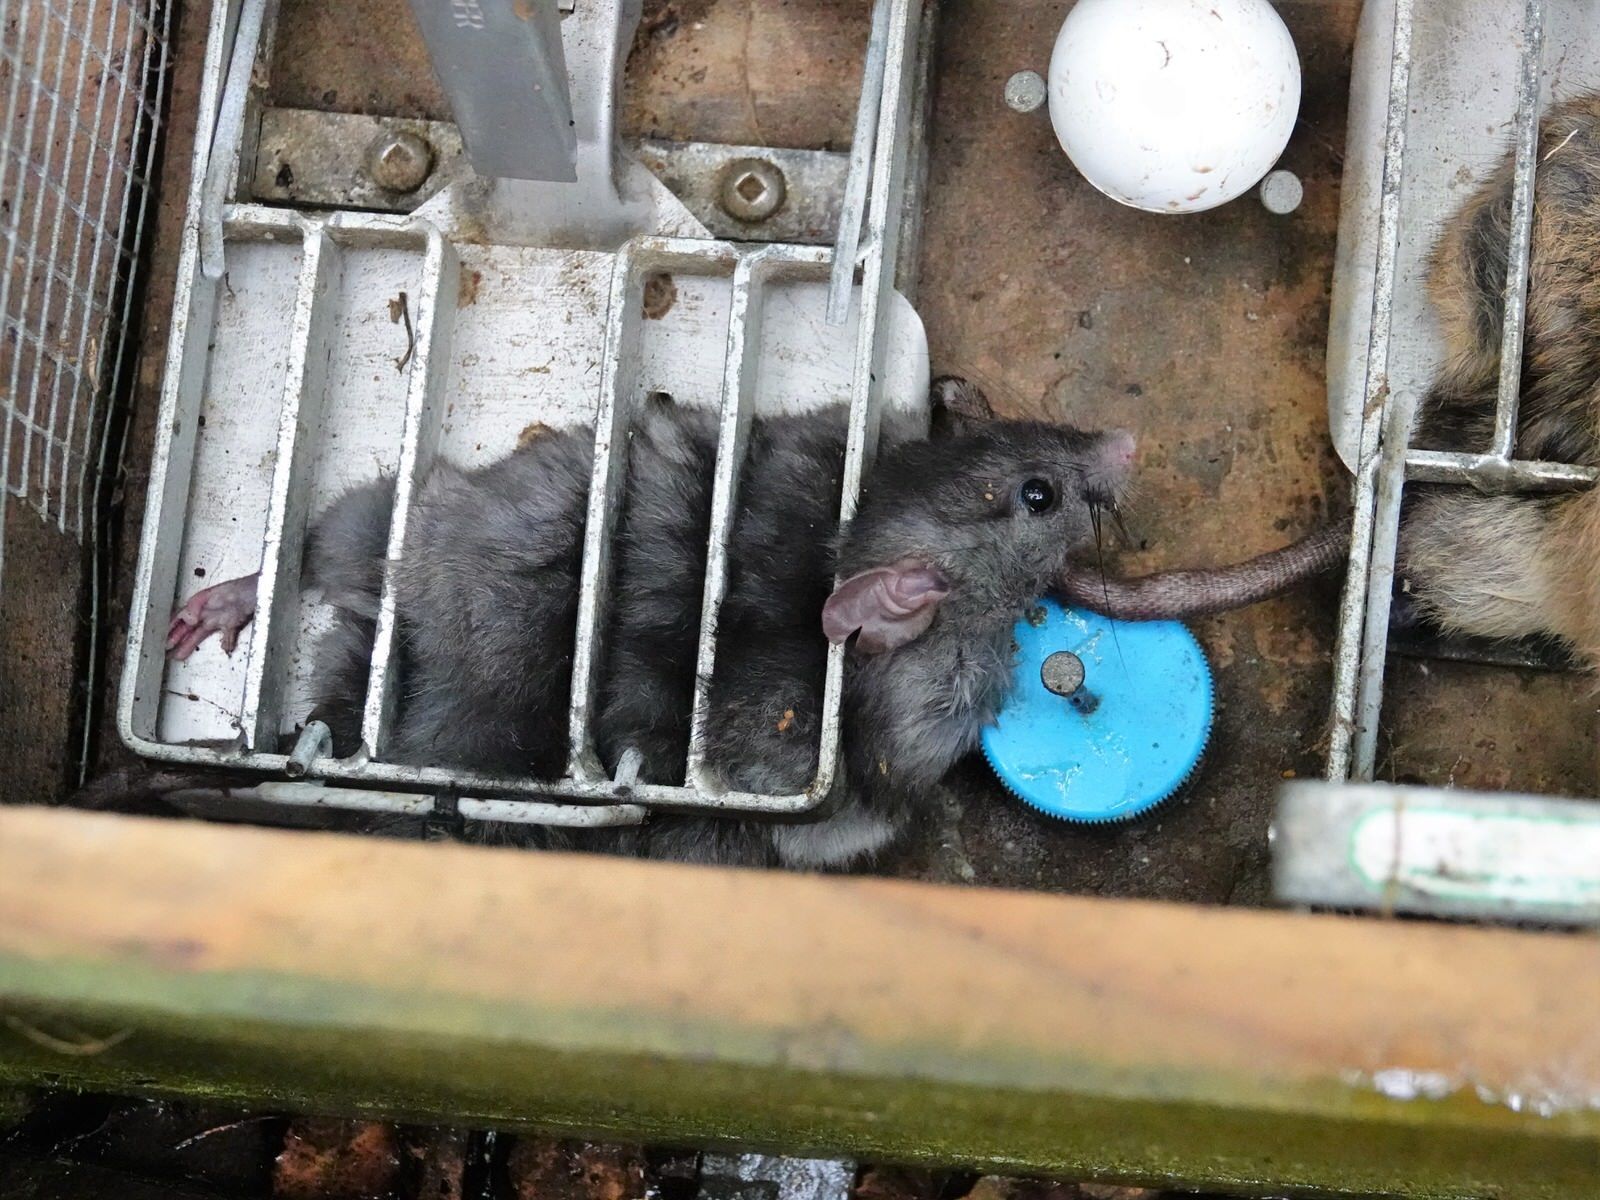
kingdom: Animalia
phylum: Chordata
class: Mammalia
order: Rodentia
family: Muridae
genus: Rattus
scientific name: Rattus rattus
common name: Black rat
